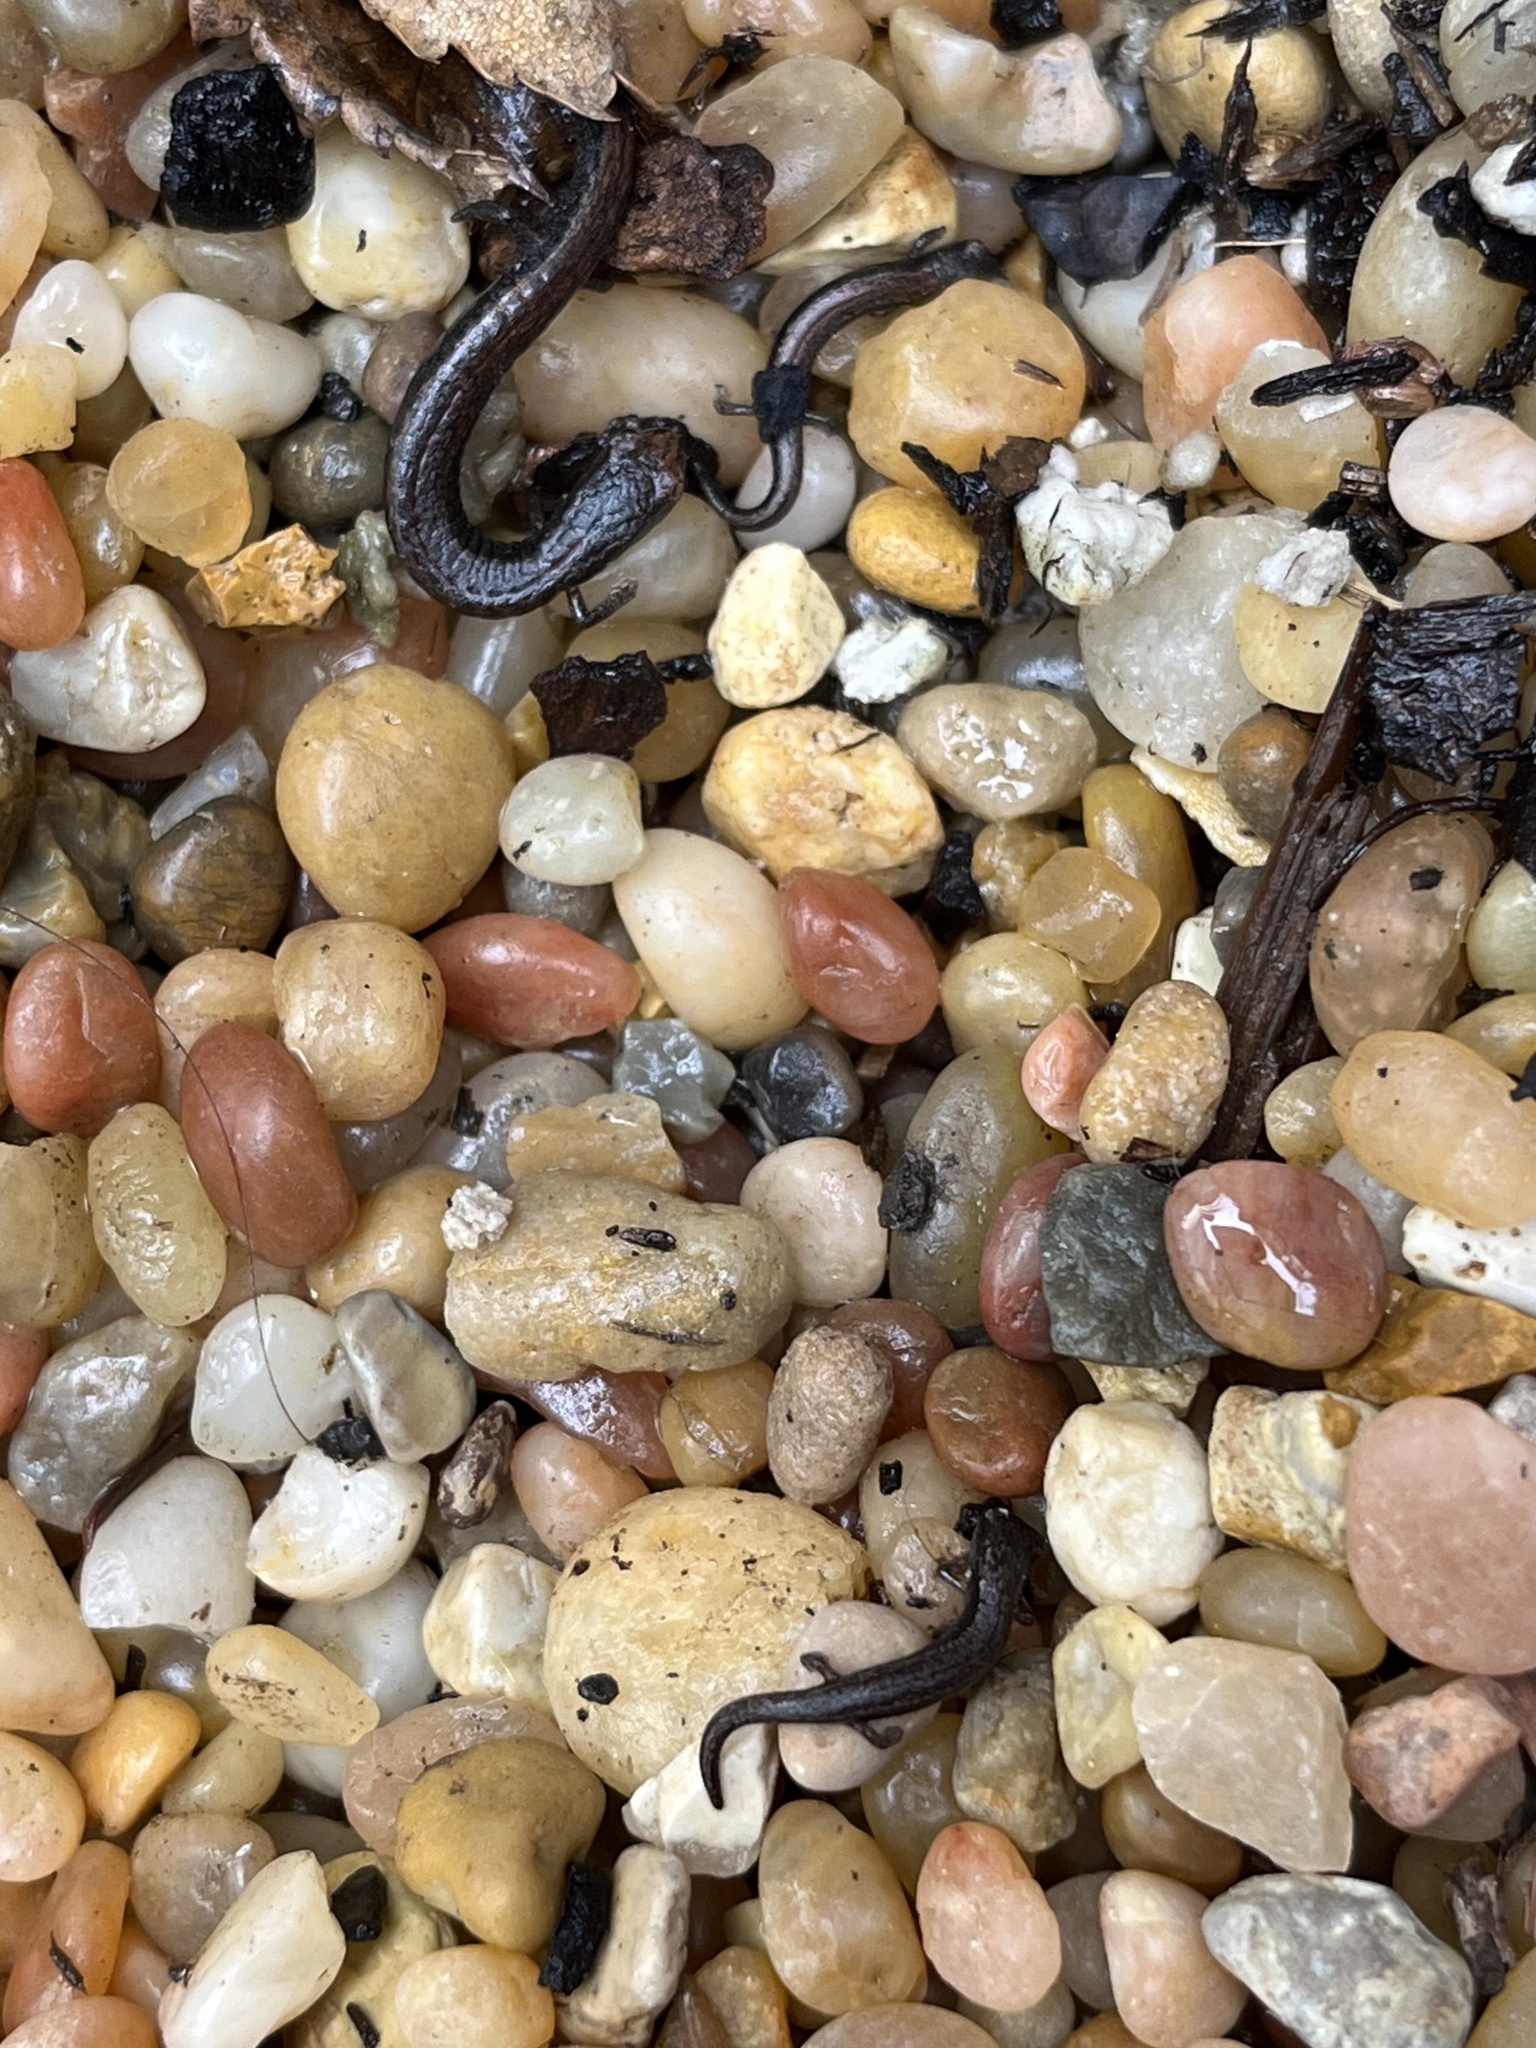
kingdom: Animalia
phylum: Chordata
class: Amphibia
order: Caudata
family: Plethodontidae
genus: Batrachoseps
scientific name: Batrachoseps attenuatus
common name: California slender salamander
